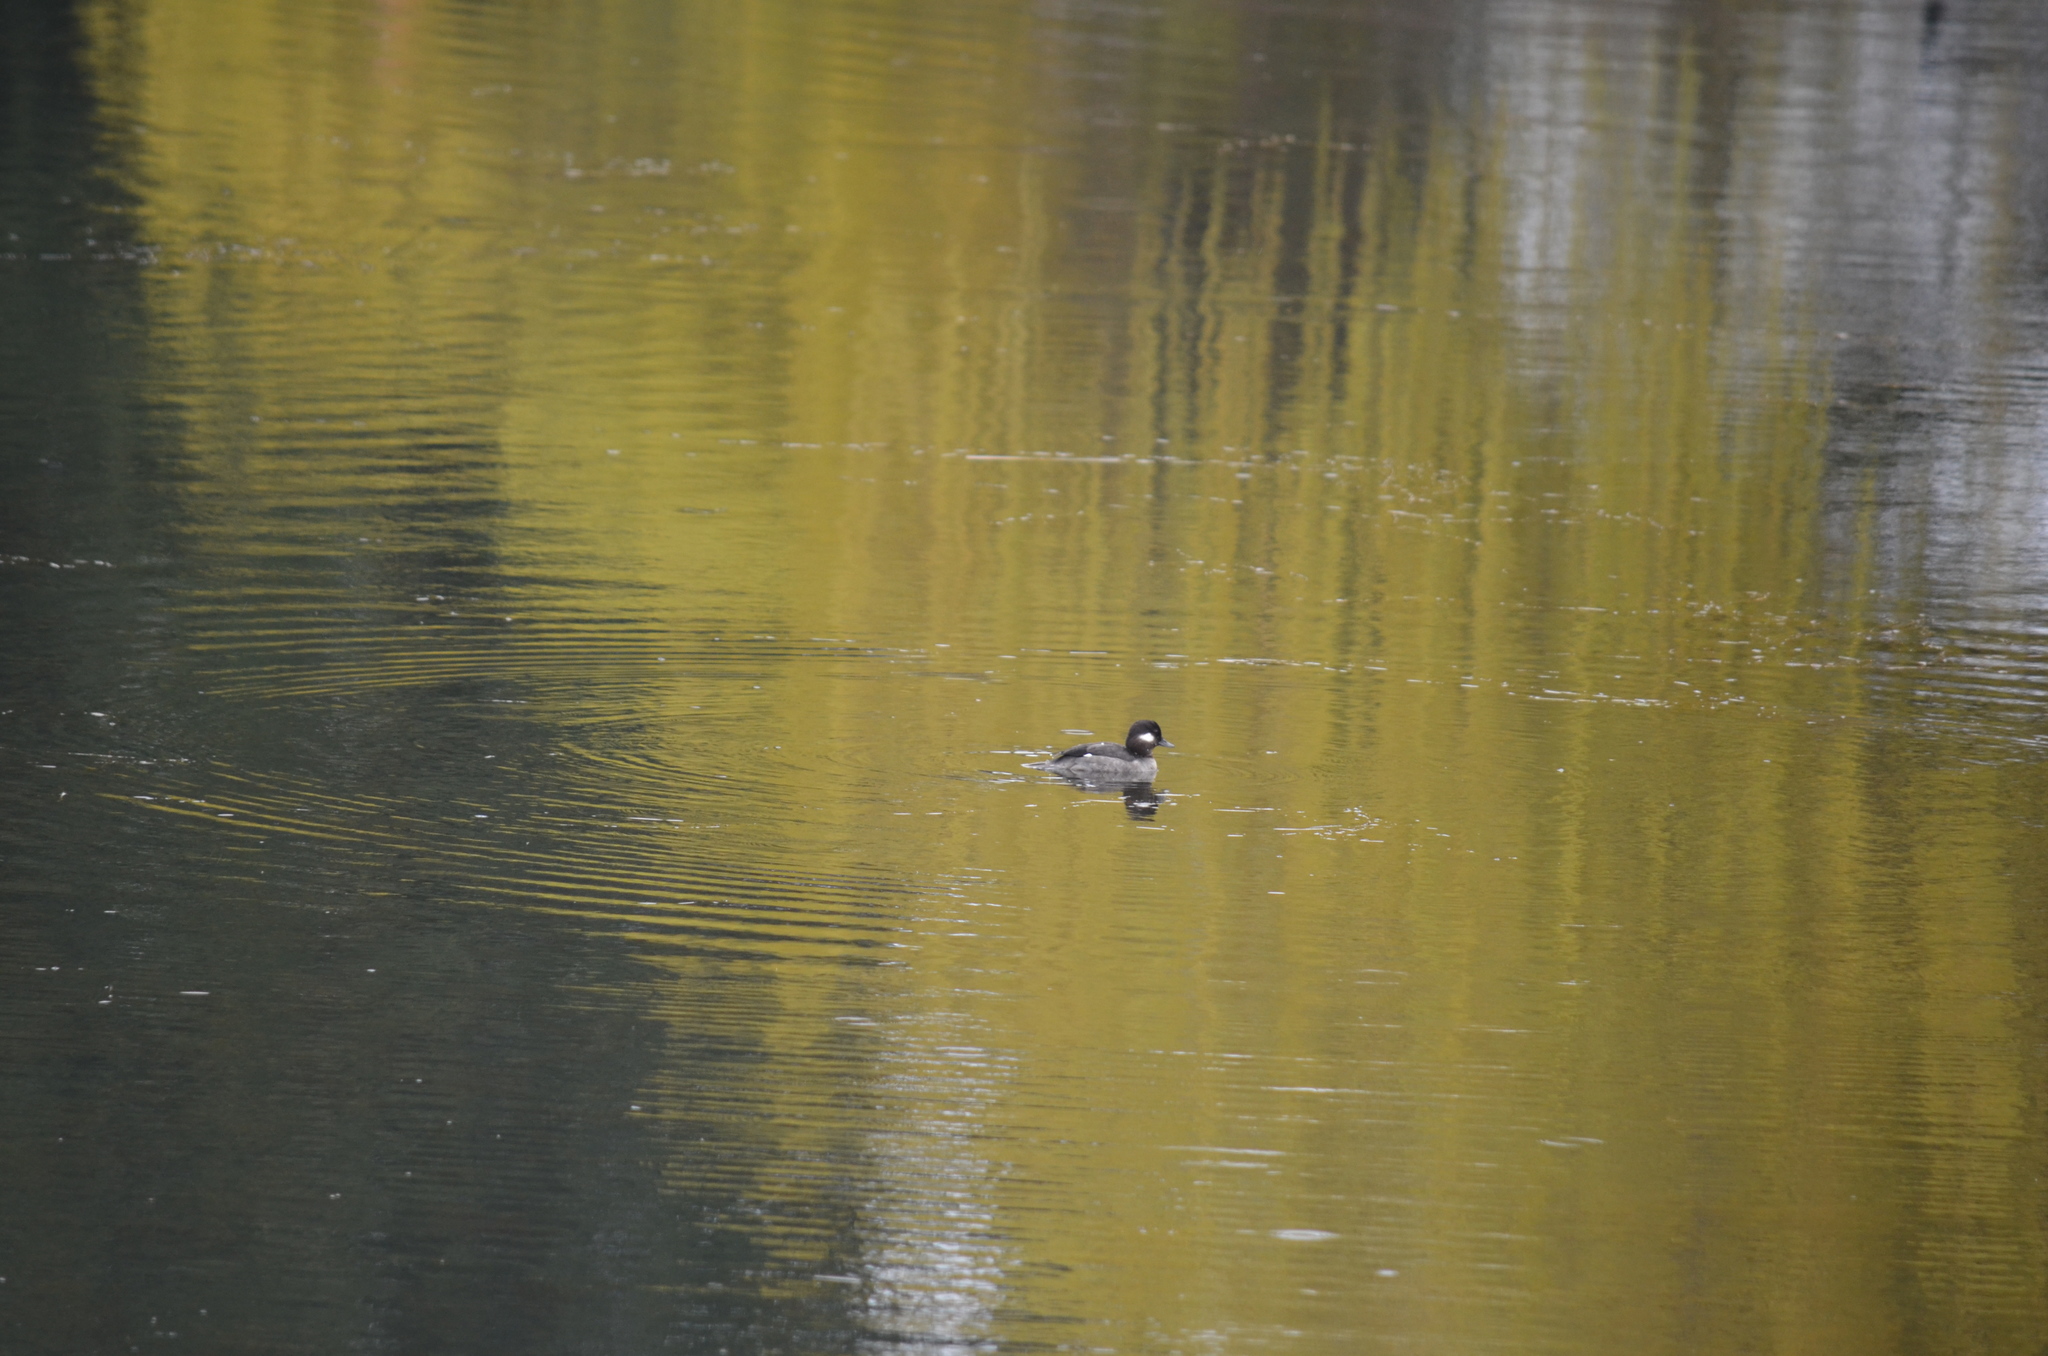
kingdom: Animalia
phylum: Chordata
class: Aves
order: Anseriformes
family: Anatidae
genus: Bucephala
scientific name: Bucephala albeola
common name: Bufflehead
